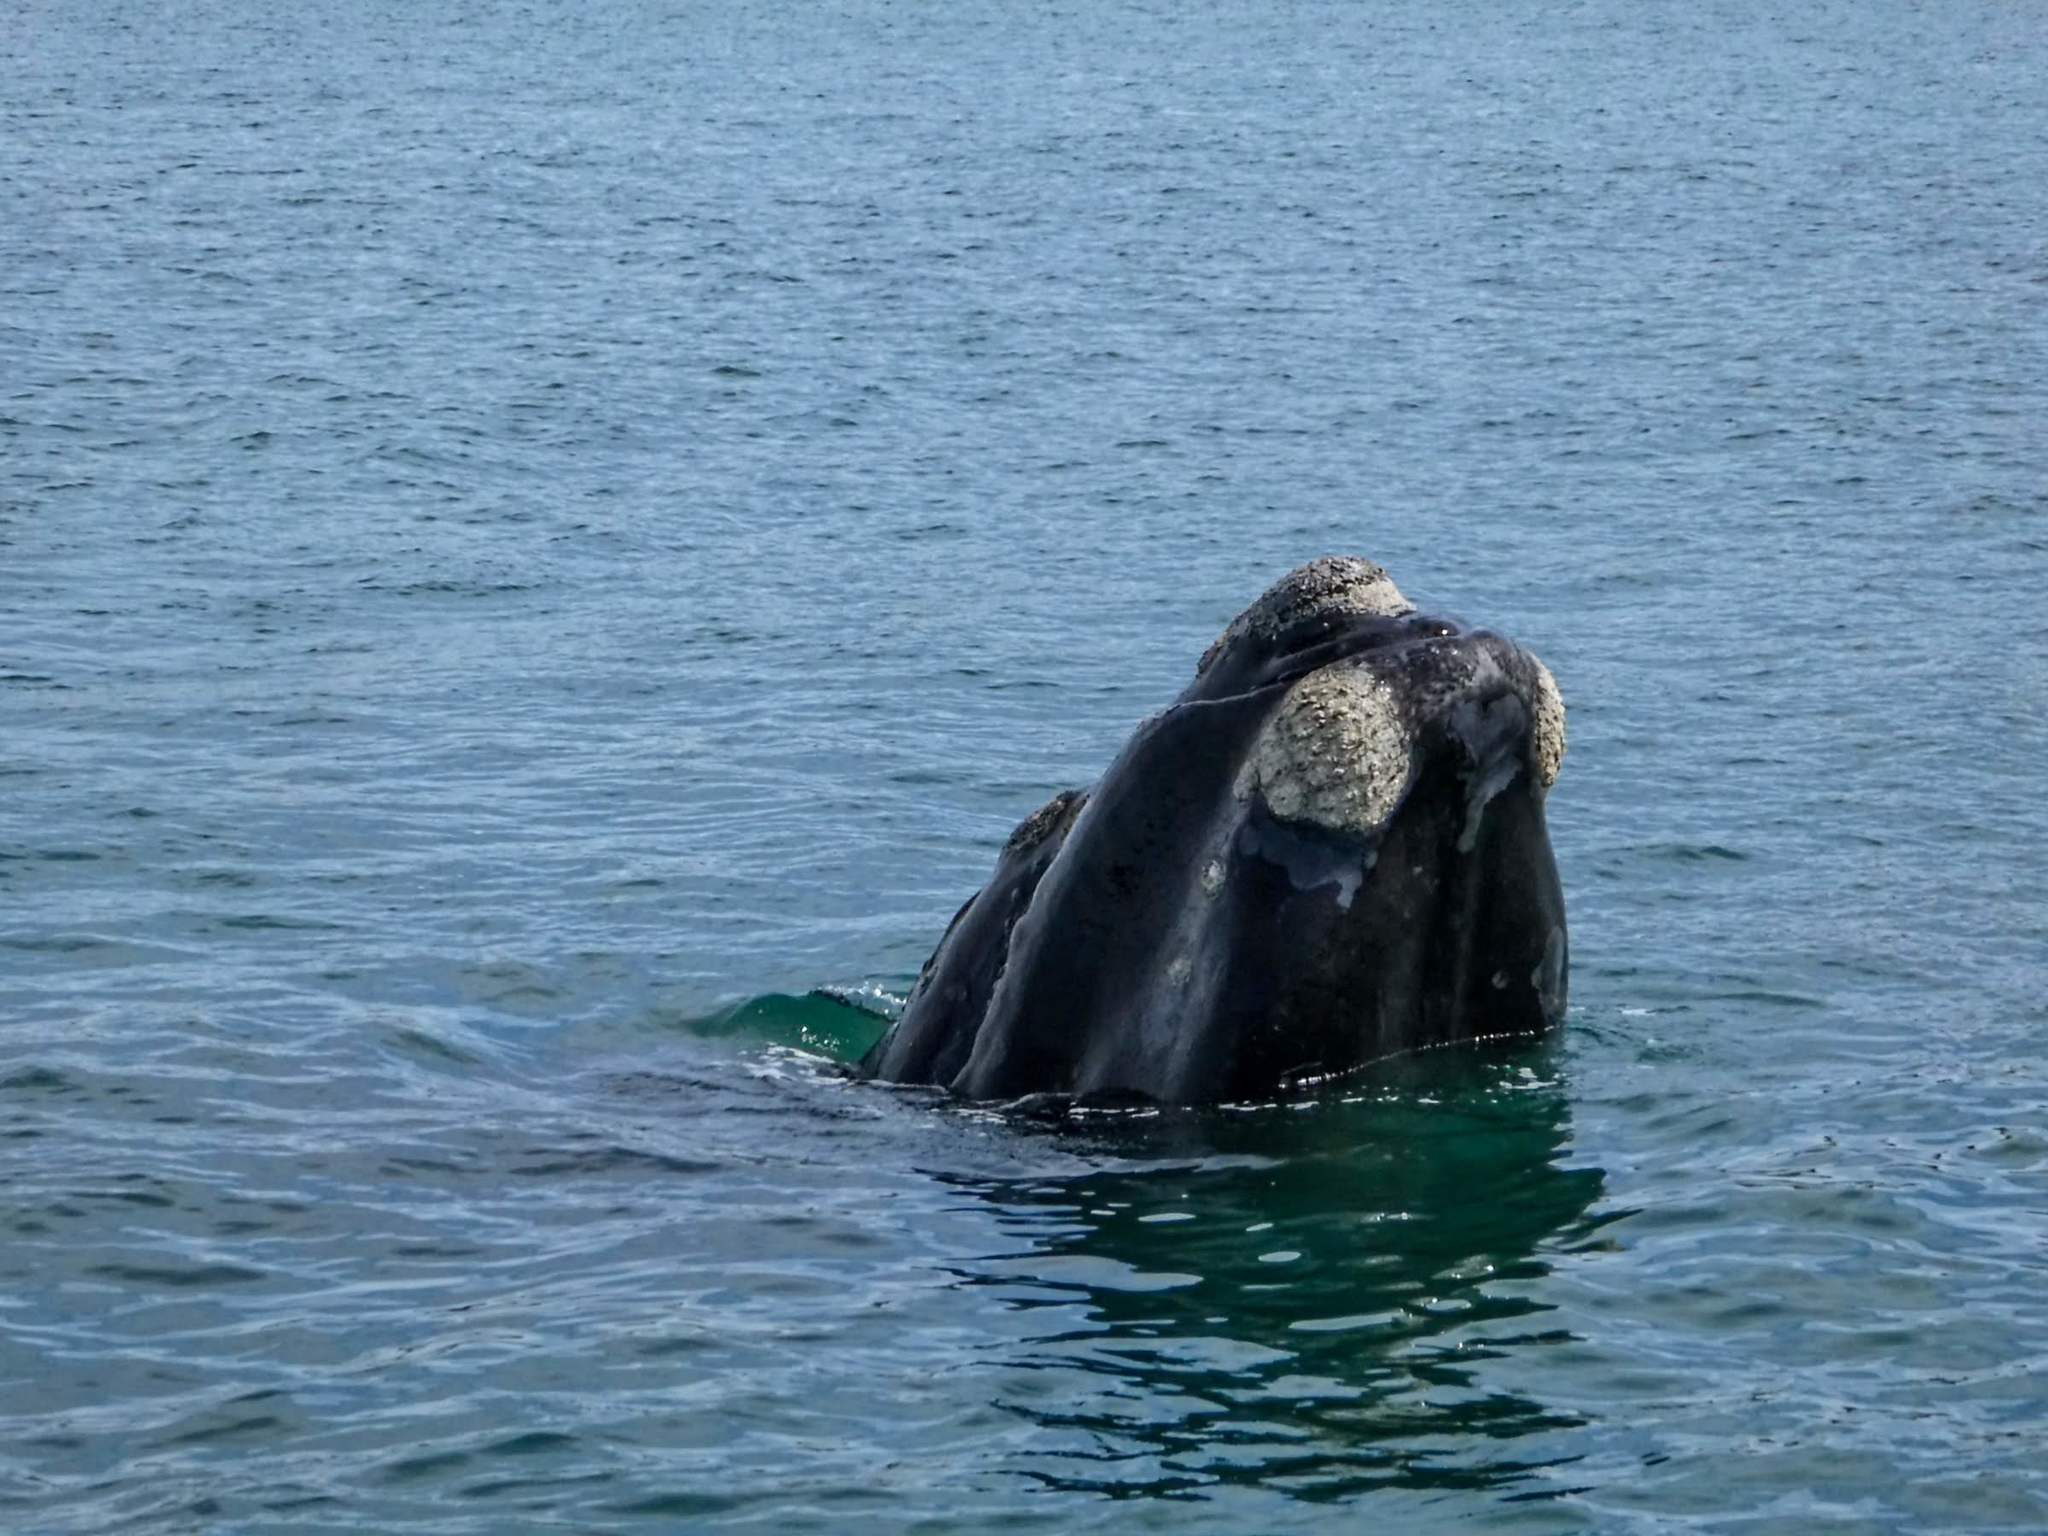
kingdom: Animalia
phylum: Chordata
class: Mammalia
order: Cetacea
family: Balaenidae
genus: Eubalaena
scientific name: Eubalaena australis
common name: Southern right whale
